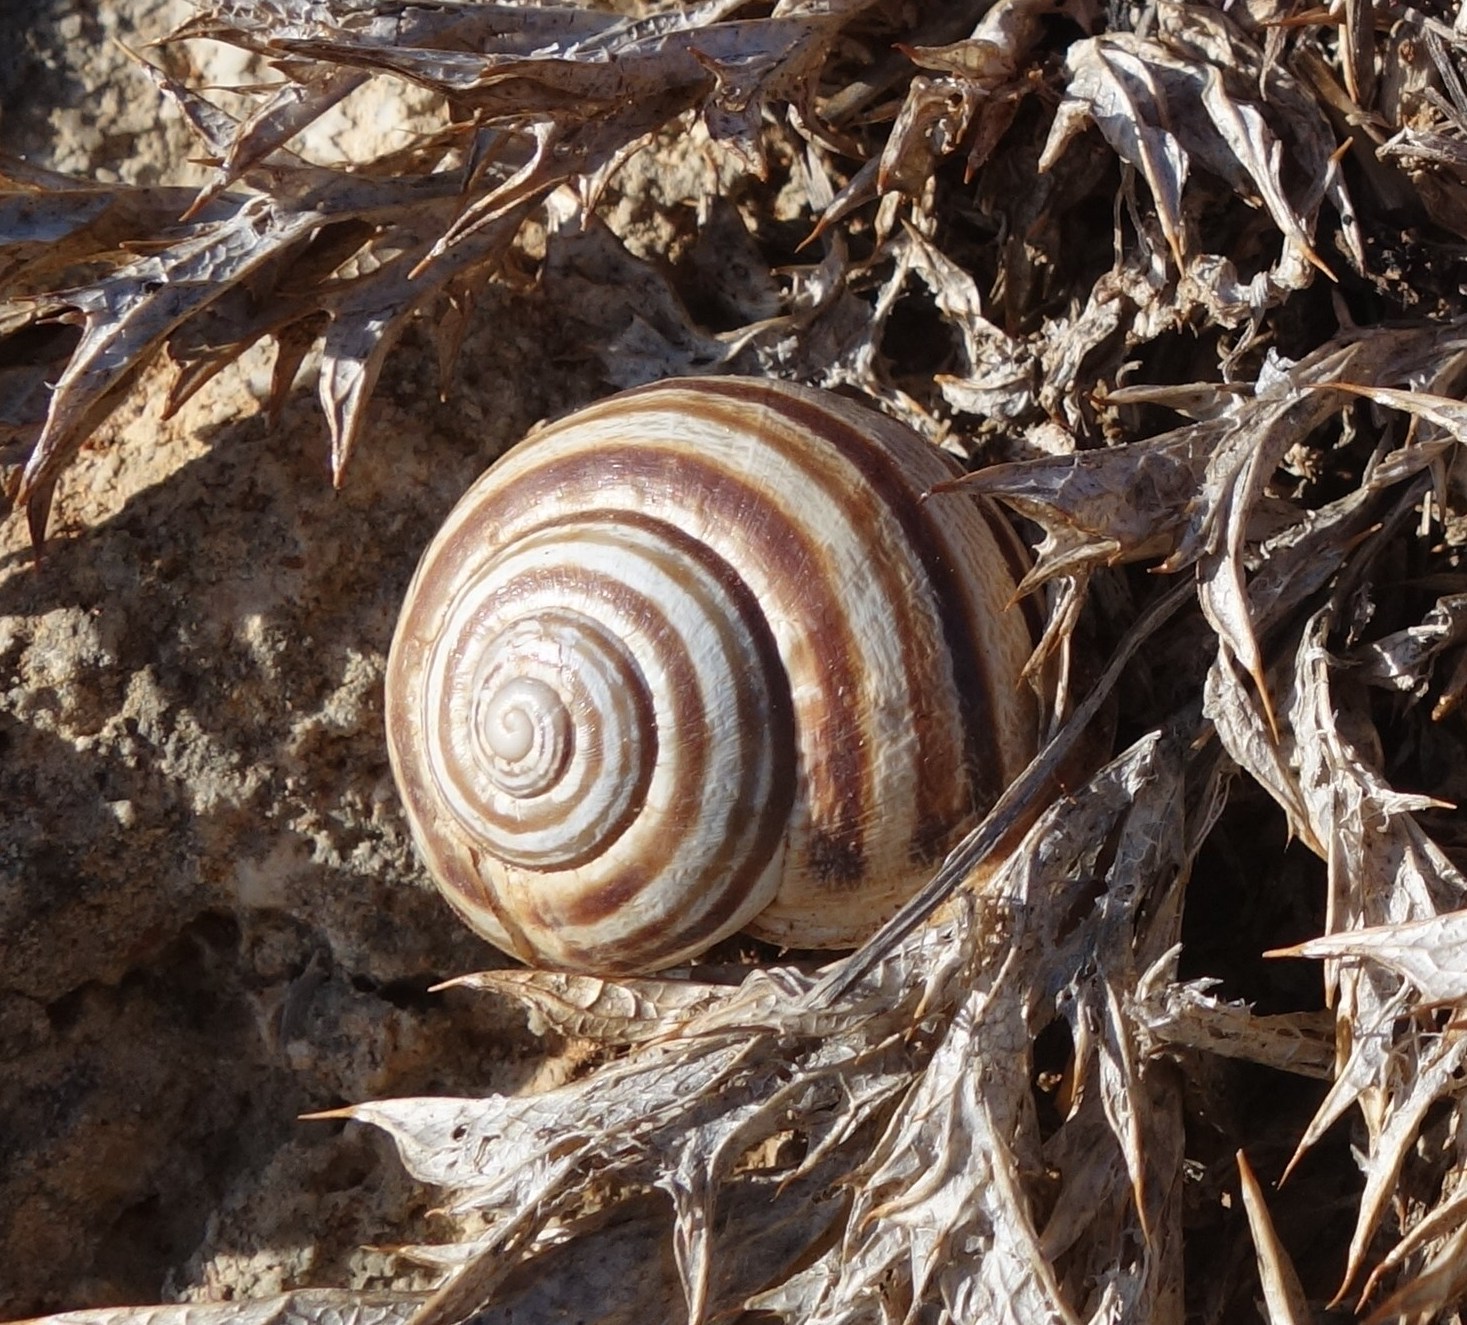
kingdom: Animalia
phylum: Mollusca
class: Gastropoda
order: Stylommatophora
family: Helicidae
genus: Eobania
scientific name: Eobania vermiculata
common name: Chocolateband snail
